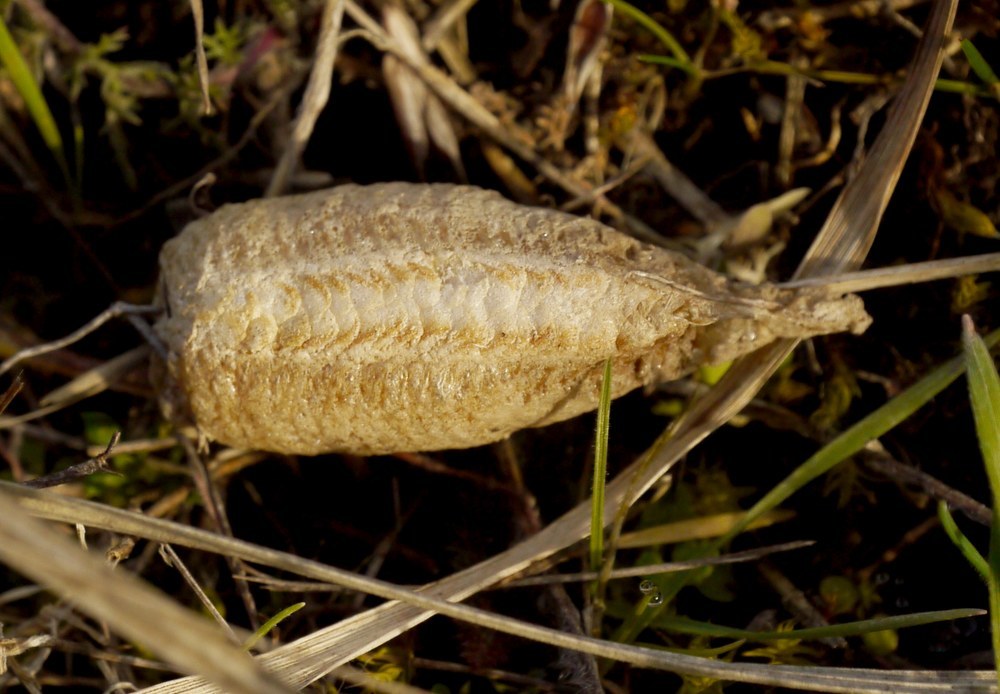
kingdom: Animalia
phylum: Arthropoda
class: Insecta
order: Mantodea
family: Mantidae
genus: Mantis
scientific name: Mantis religiosa
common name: Praying mantis
